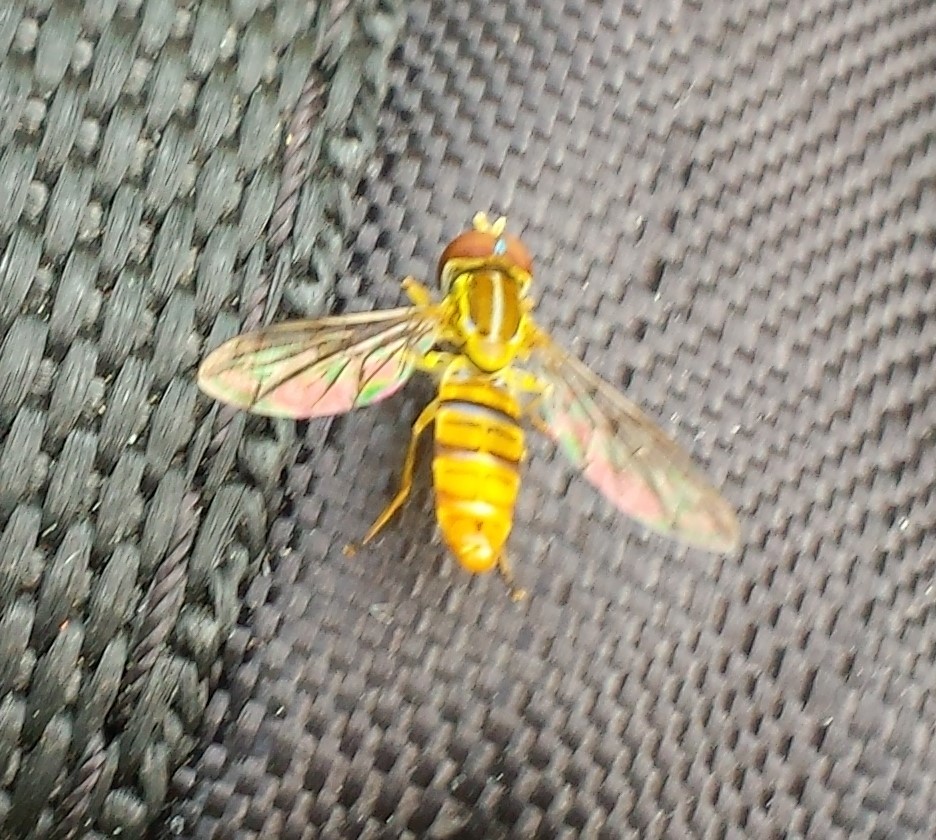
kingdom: Animalia
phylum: Arthropoda
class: Insecta
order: Diptera
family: Syrphidae
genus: Toxomerus
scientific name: Toxomerus politus
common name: Maize calligrapher
